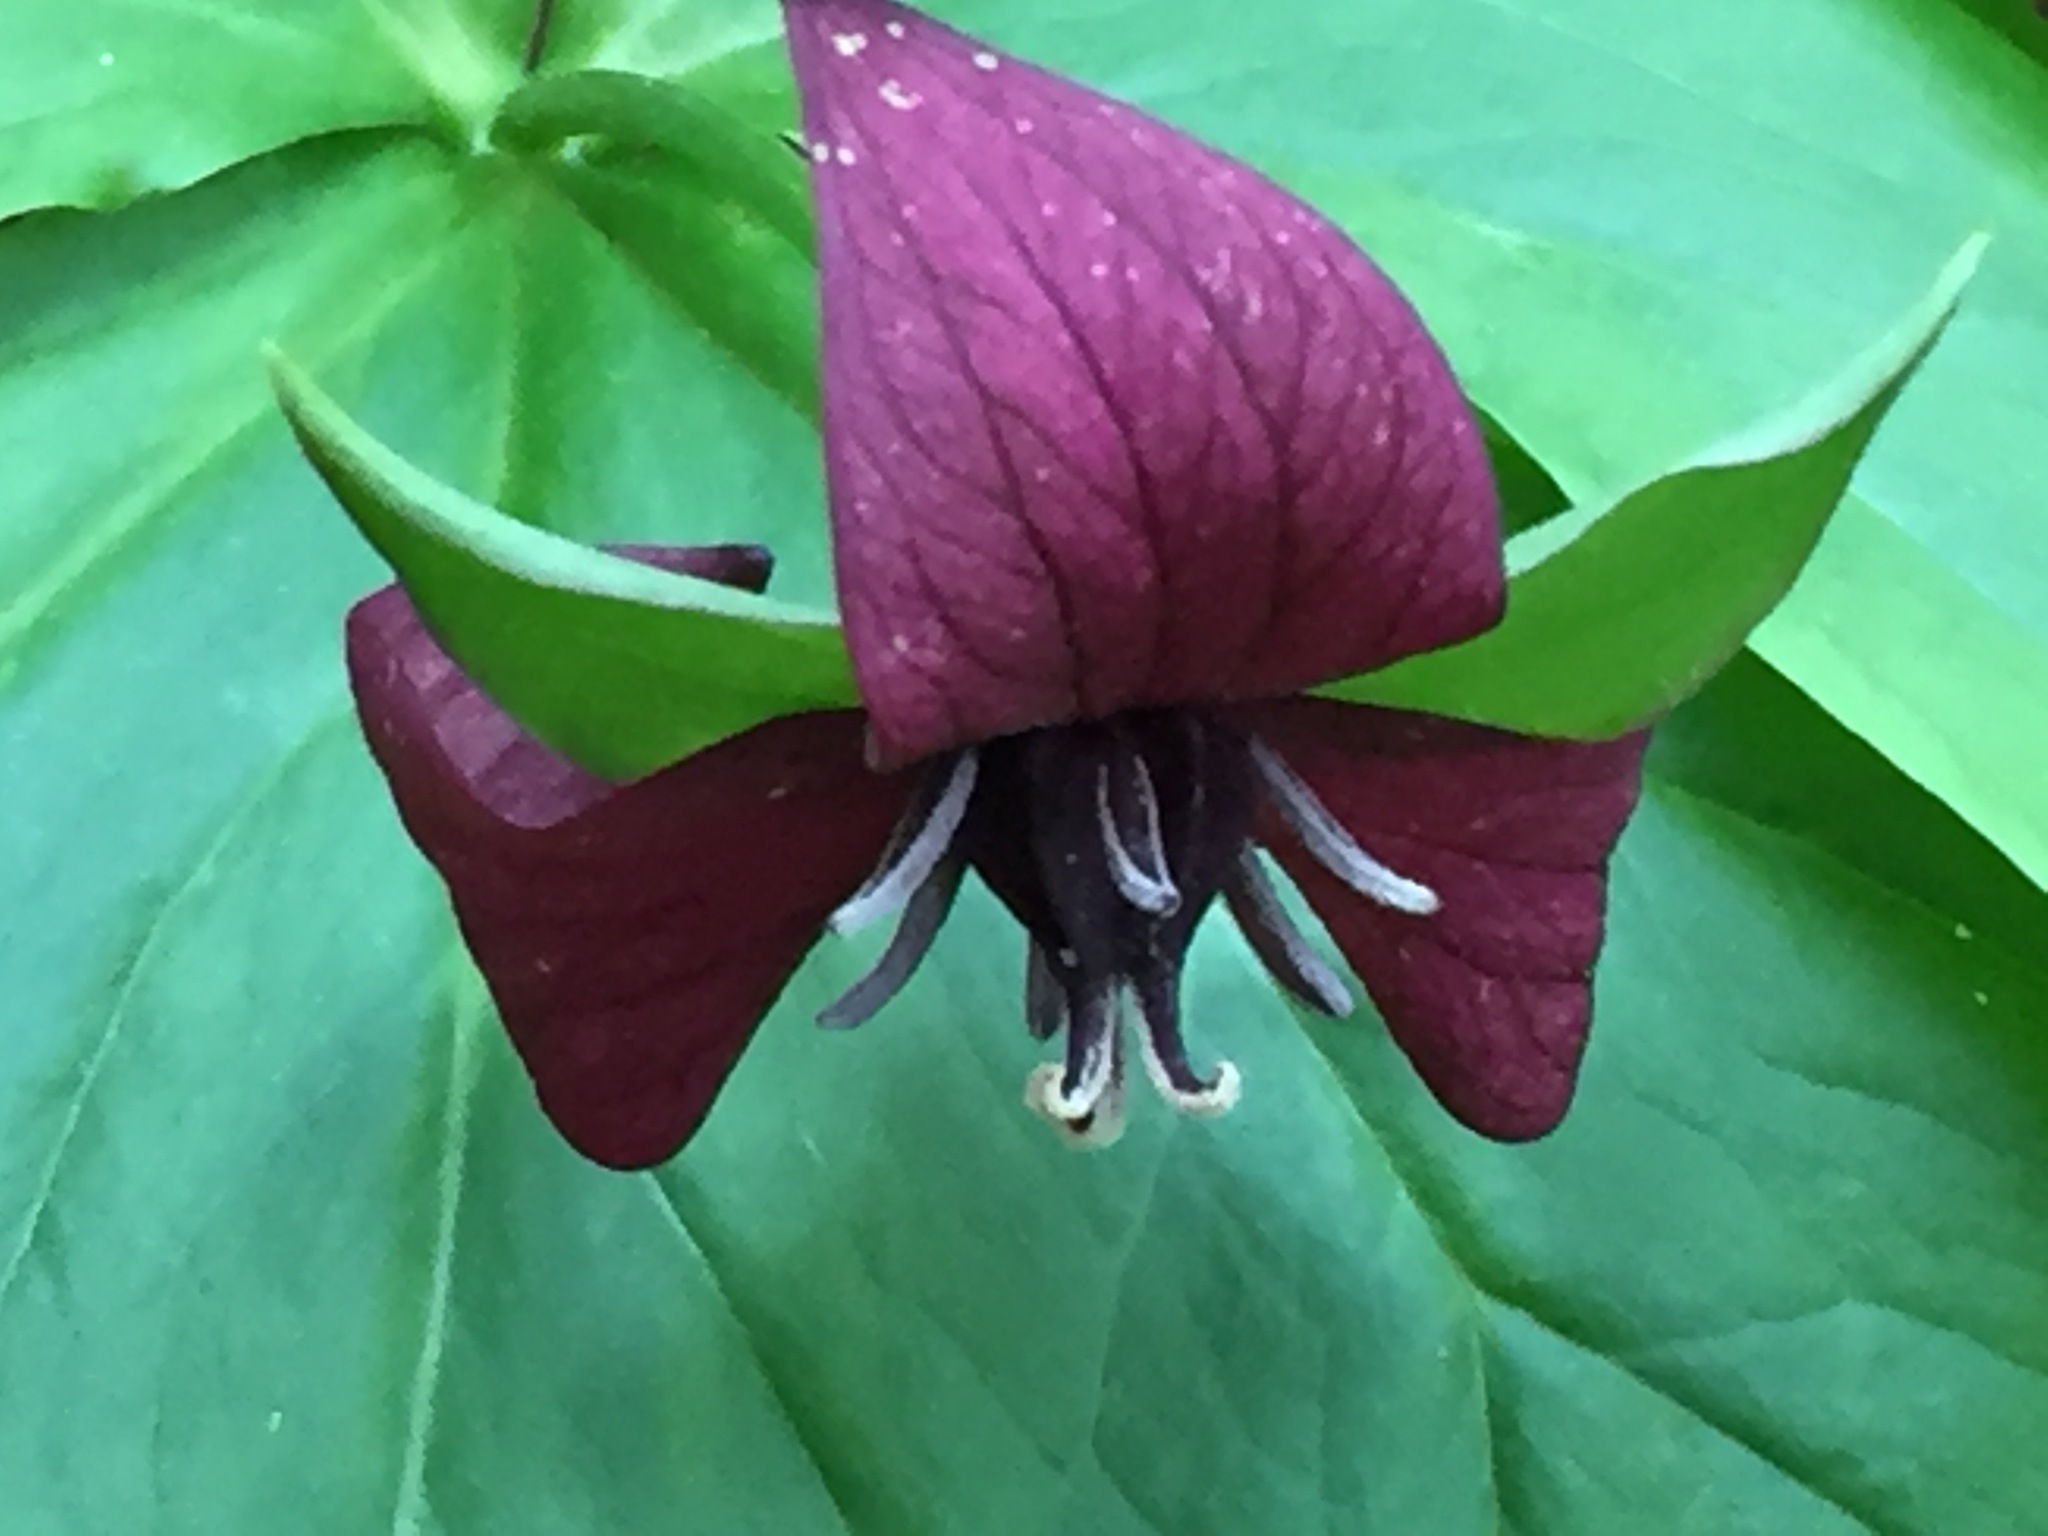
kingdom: Plantae
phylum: Tracheophyta
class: Liliopsida
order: Liliales
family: Melanthiaceae
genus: Trillium
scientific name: Trillium erectum
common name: Purple trillium
